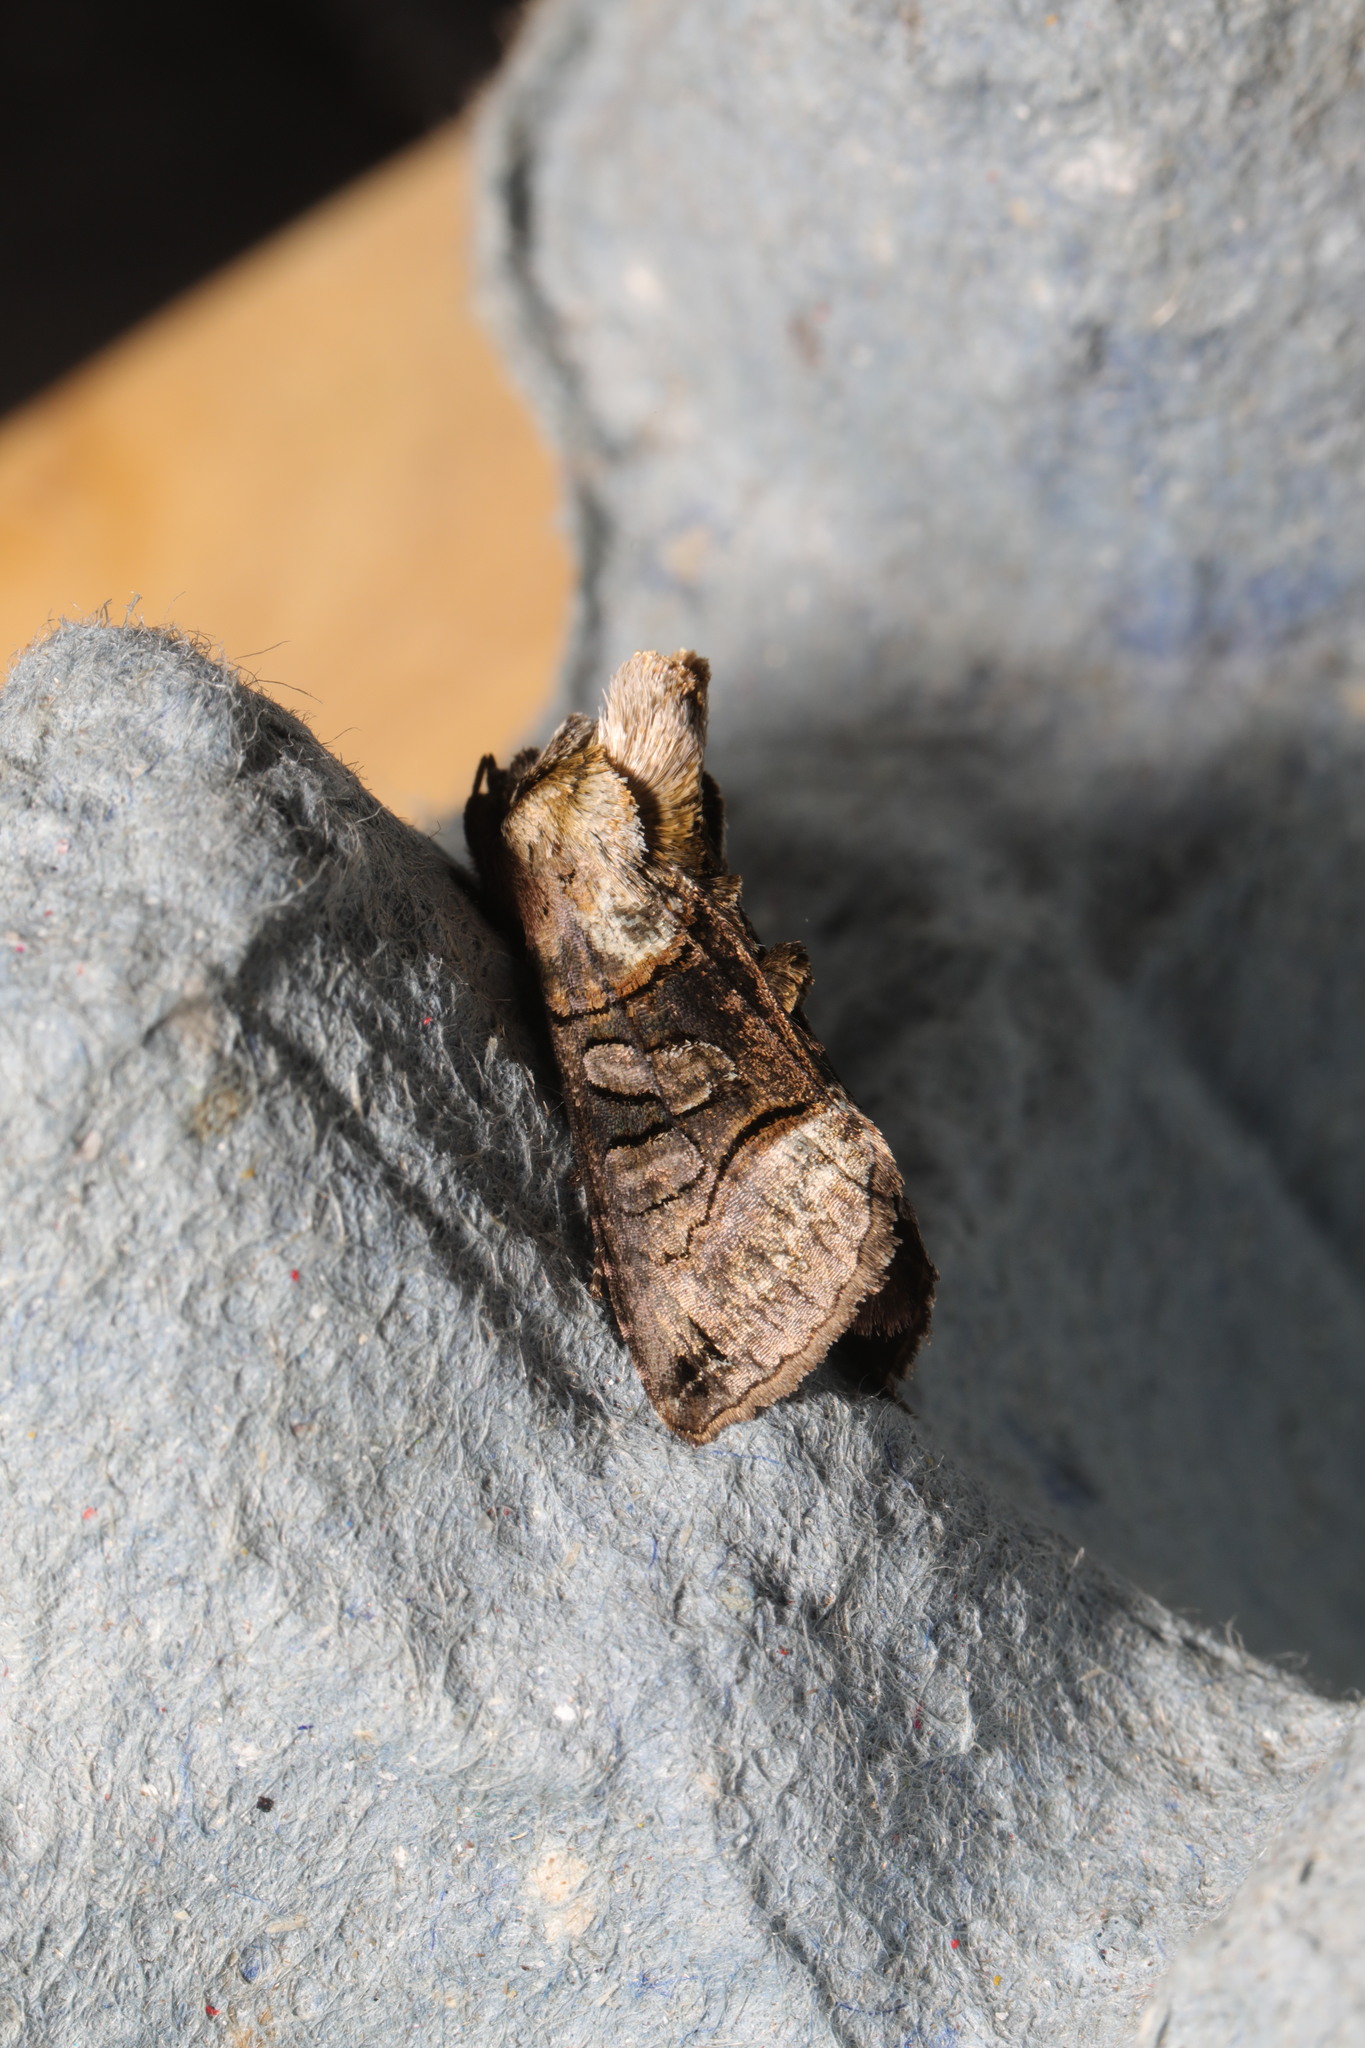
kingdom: Animalia
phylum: Arthropoda
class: Insecta
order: Lepidoptera
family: Noctuidae
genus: Abrostola
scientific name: Abrostola tripartita
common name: Spectacle
